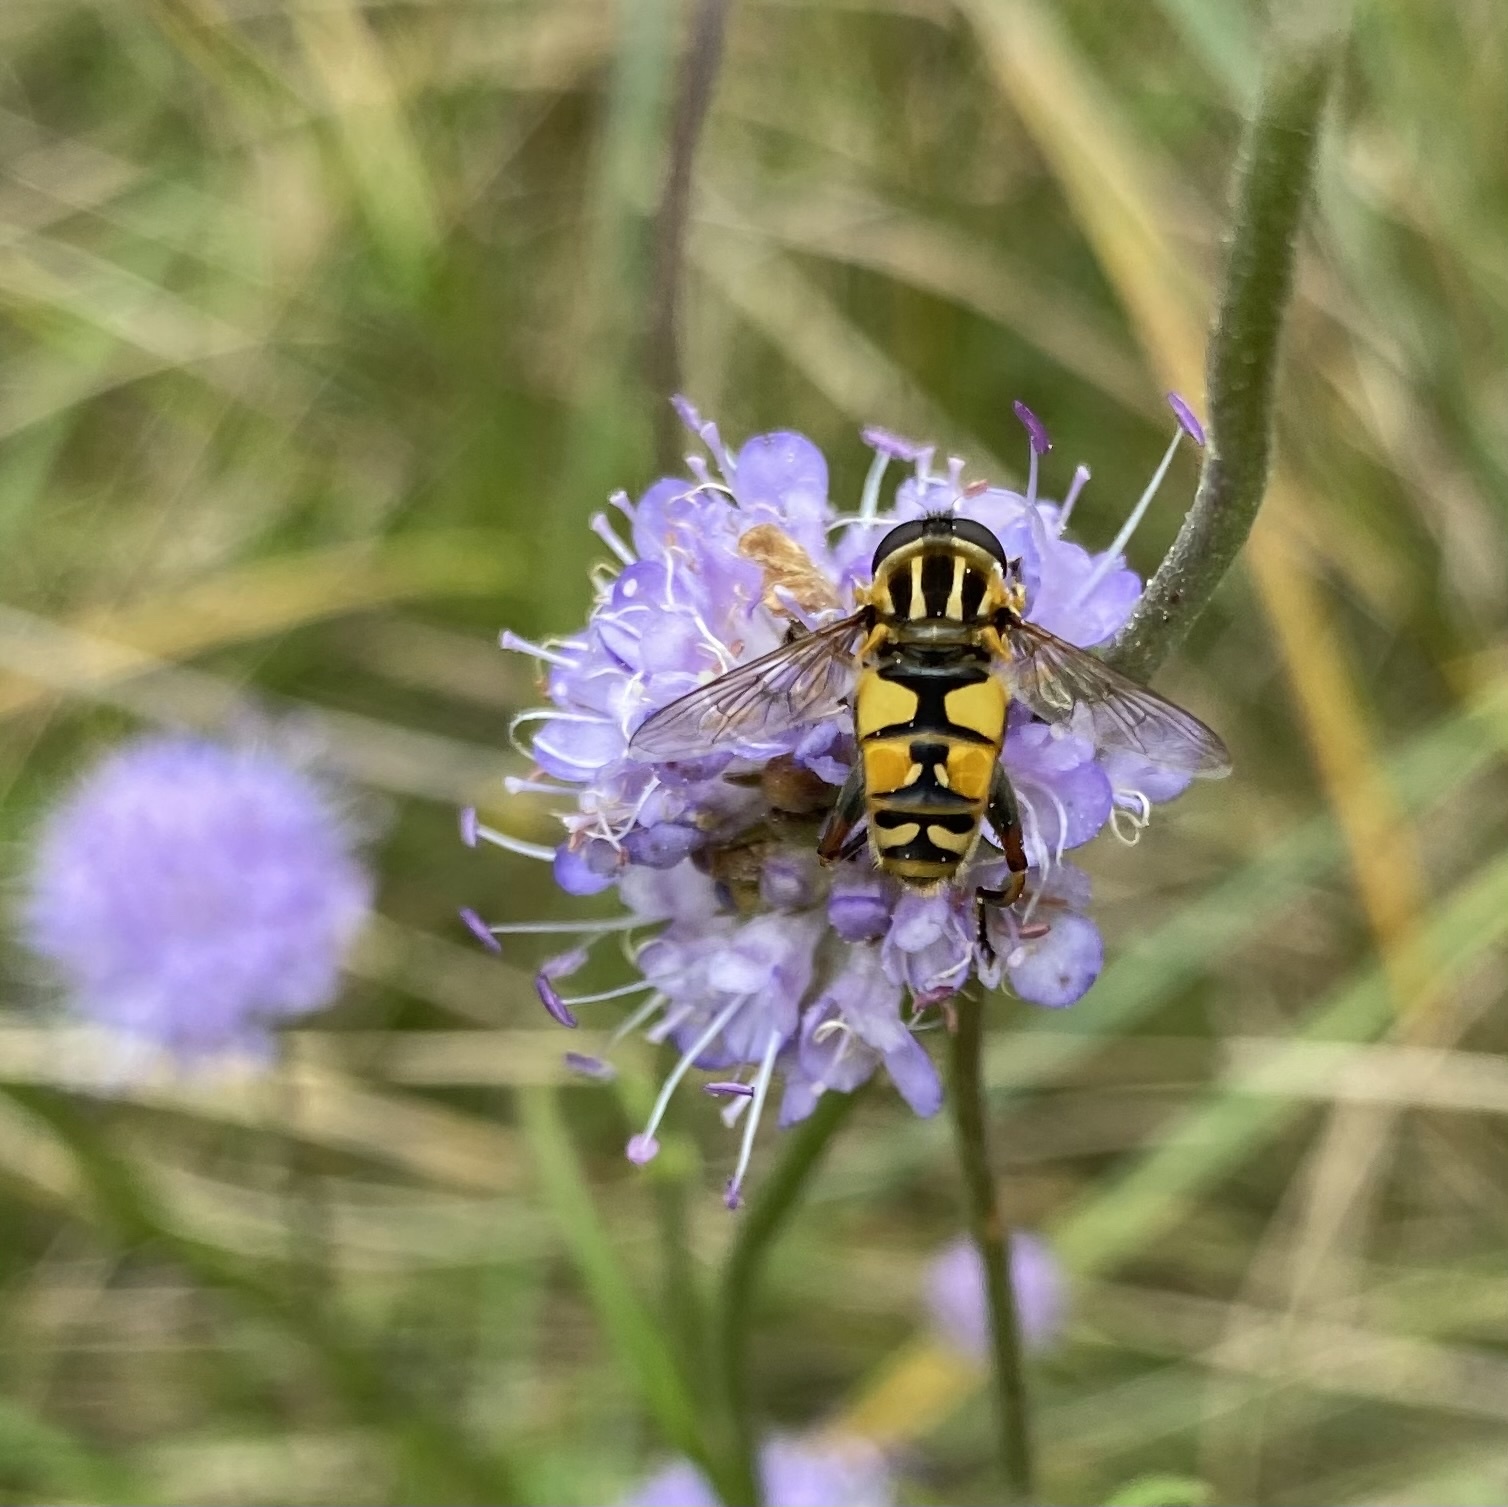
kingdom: Animalia
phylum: Arthropoda
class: Insecta
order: Diptera
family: Syrphidae
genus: Helophilus
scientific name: Helophilus pendulus
